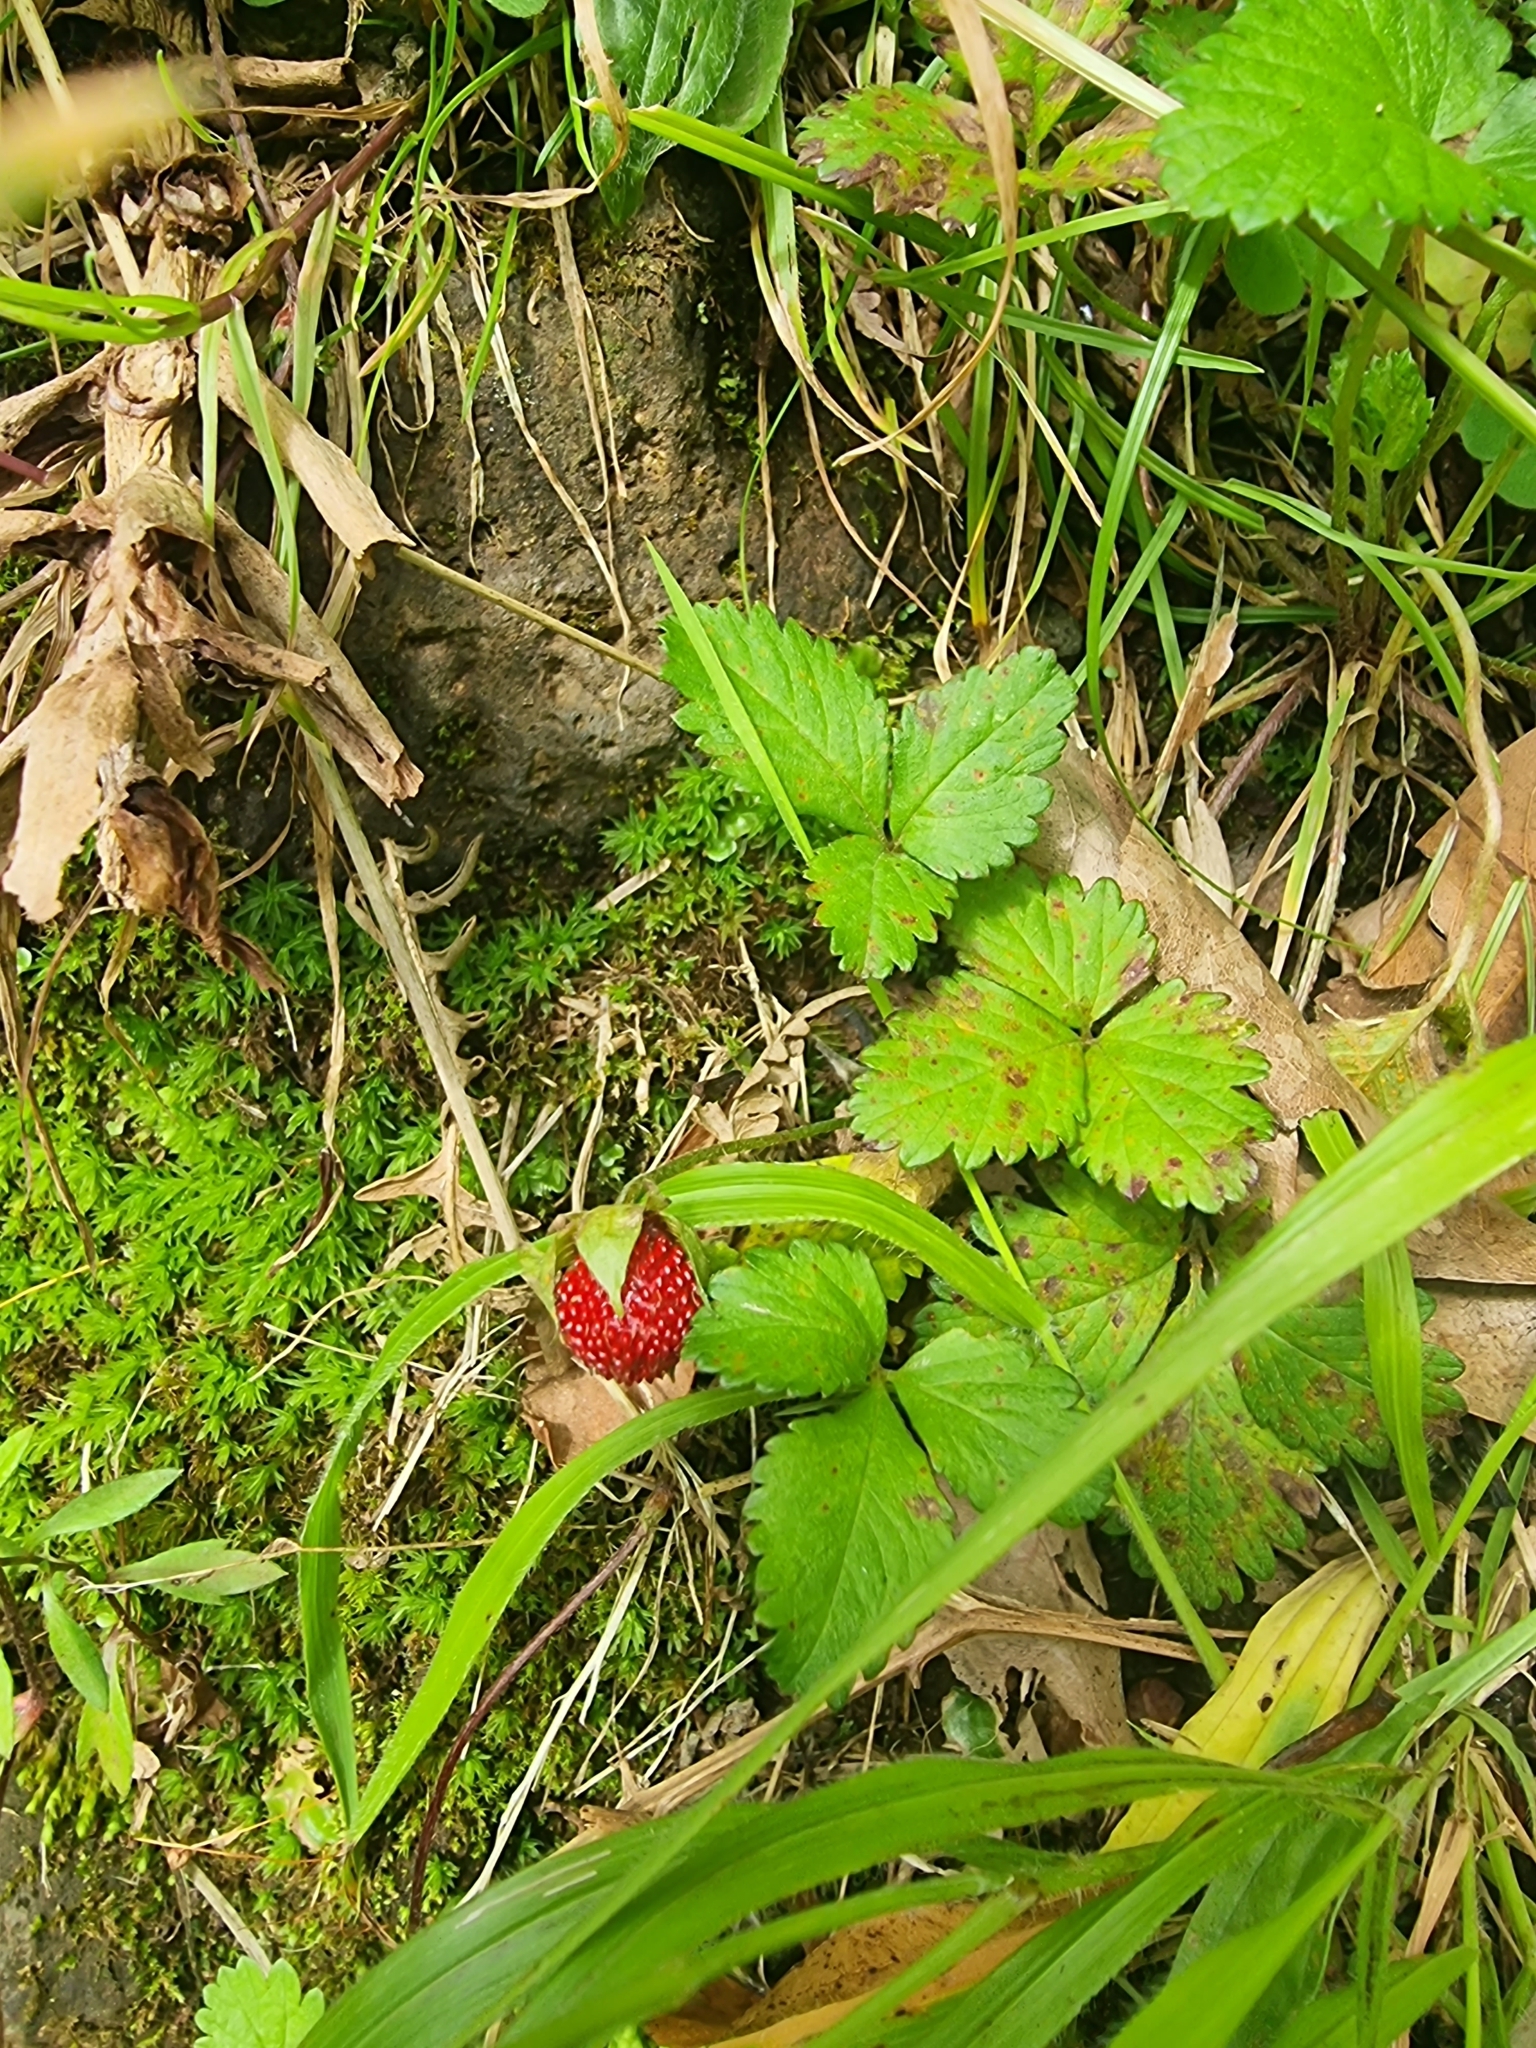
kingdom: Plantae
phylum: Tracheophyta
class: Magnoliopsida
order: Rosales
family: Rosaceae
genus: Potentilla
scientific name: Potentilla indica
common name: Yellow-flowered strawberry
